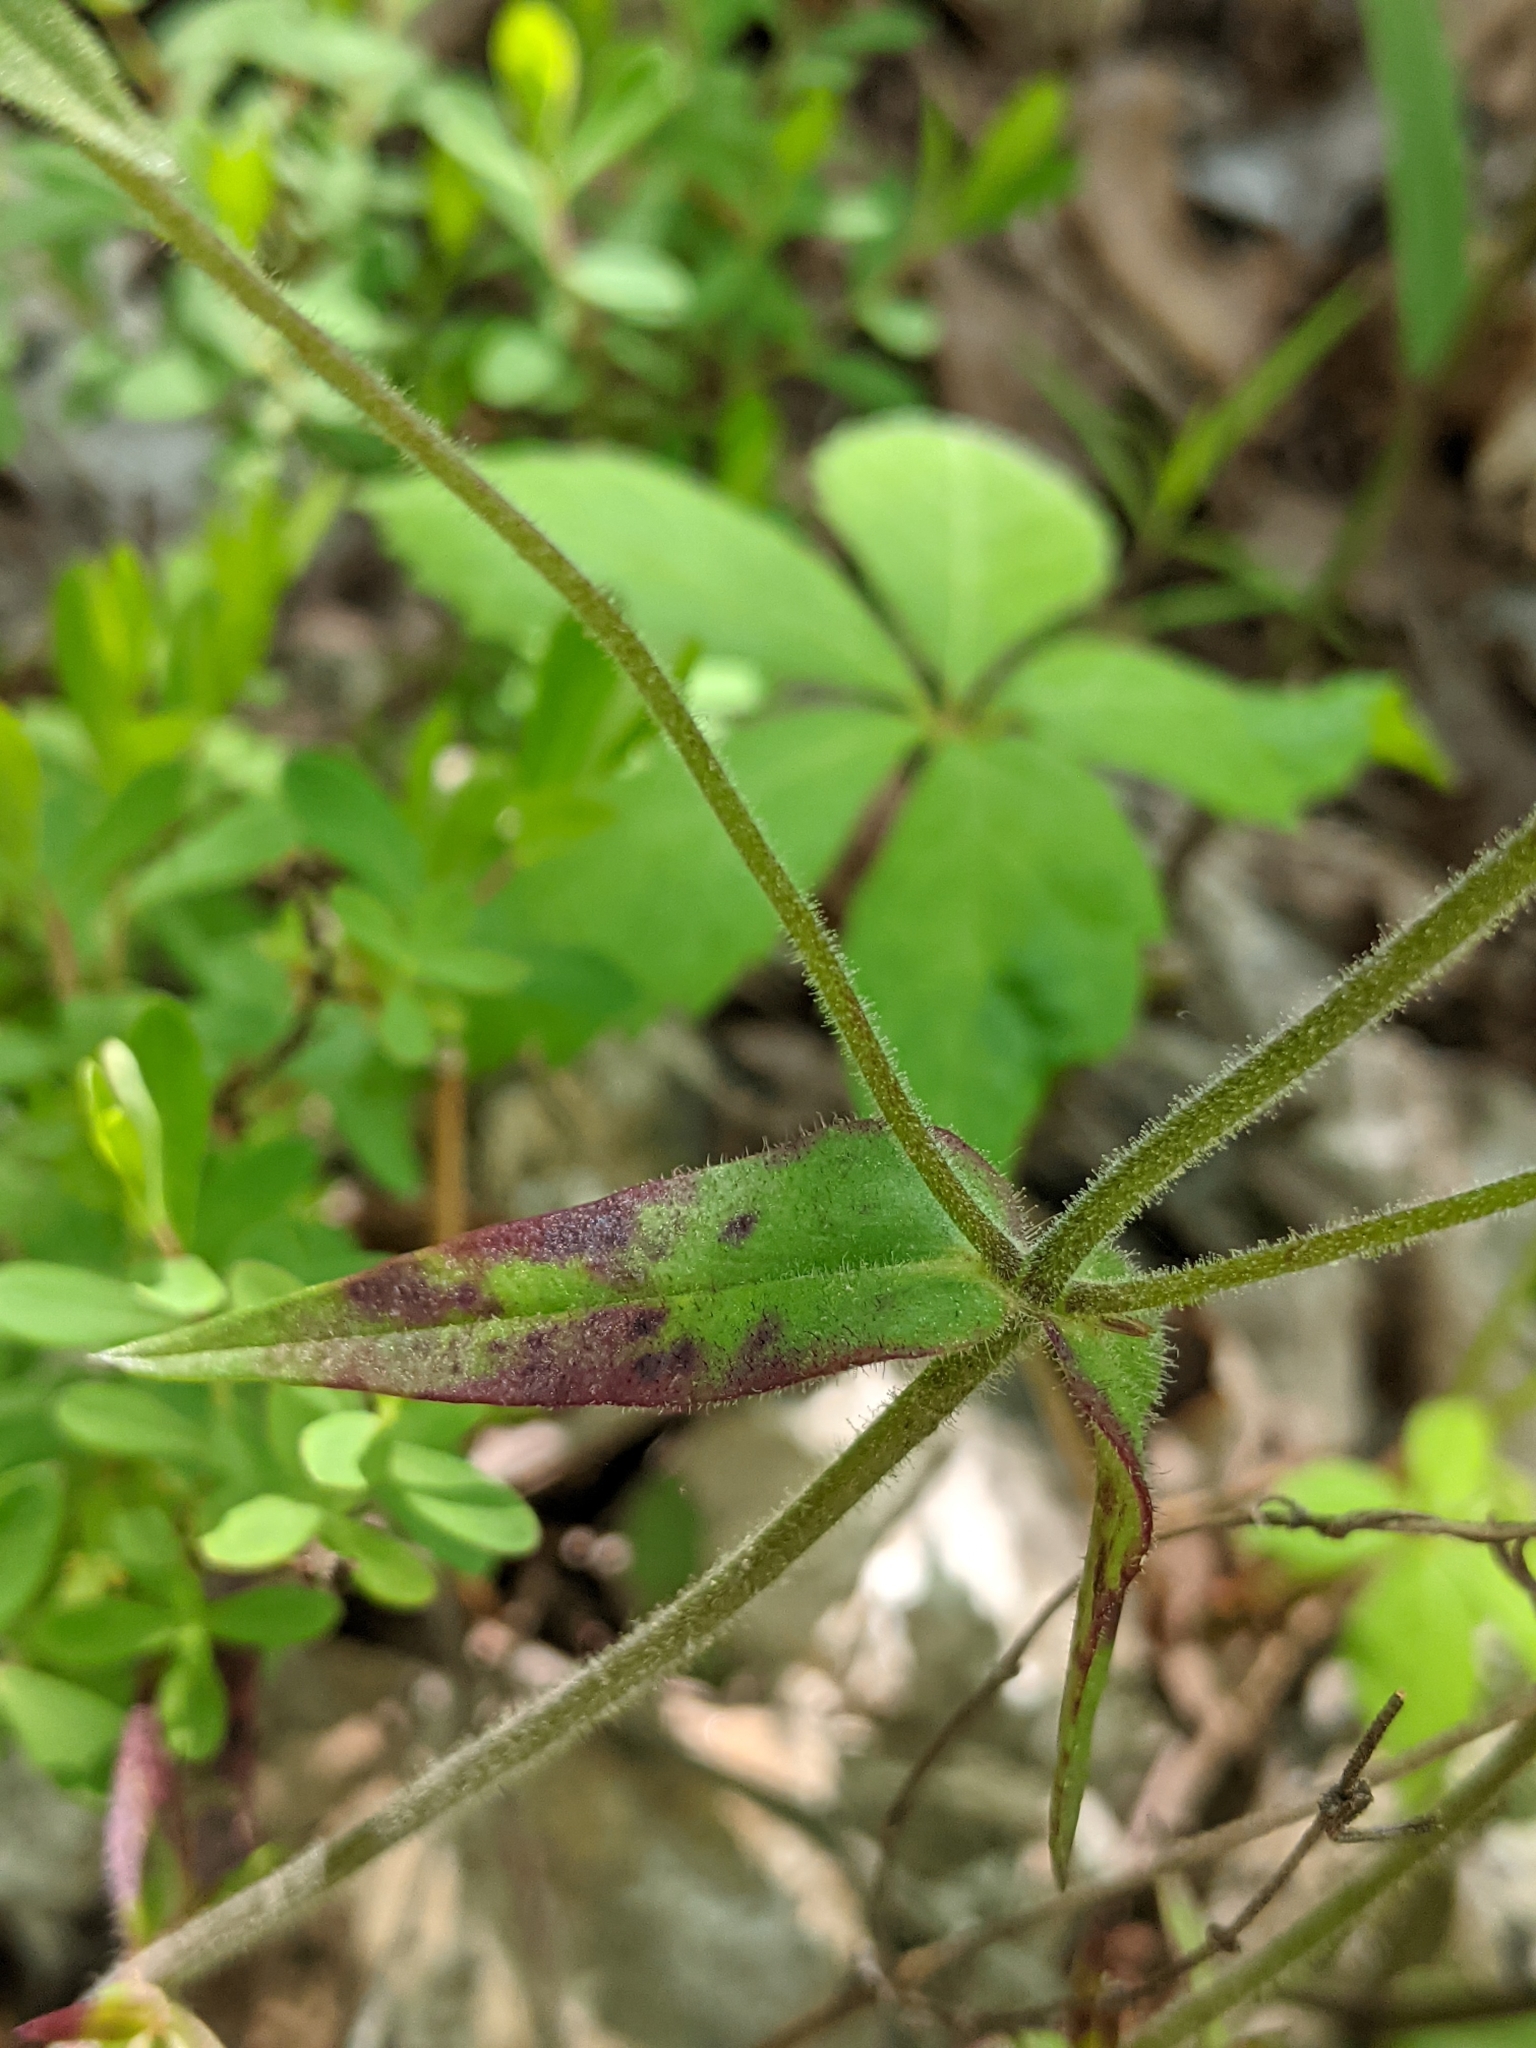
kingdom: Plantae
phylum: Tracheophyta
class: Magnoliopsida
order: Ericales
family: Polemoniaceae
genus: Phlox
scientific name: Phlox pilosa
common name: Prairie phlox
